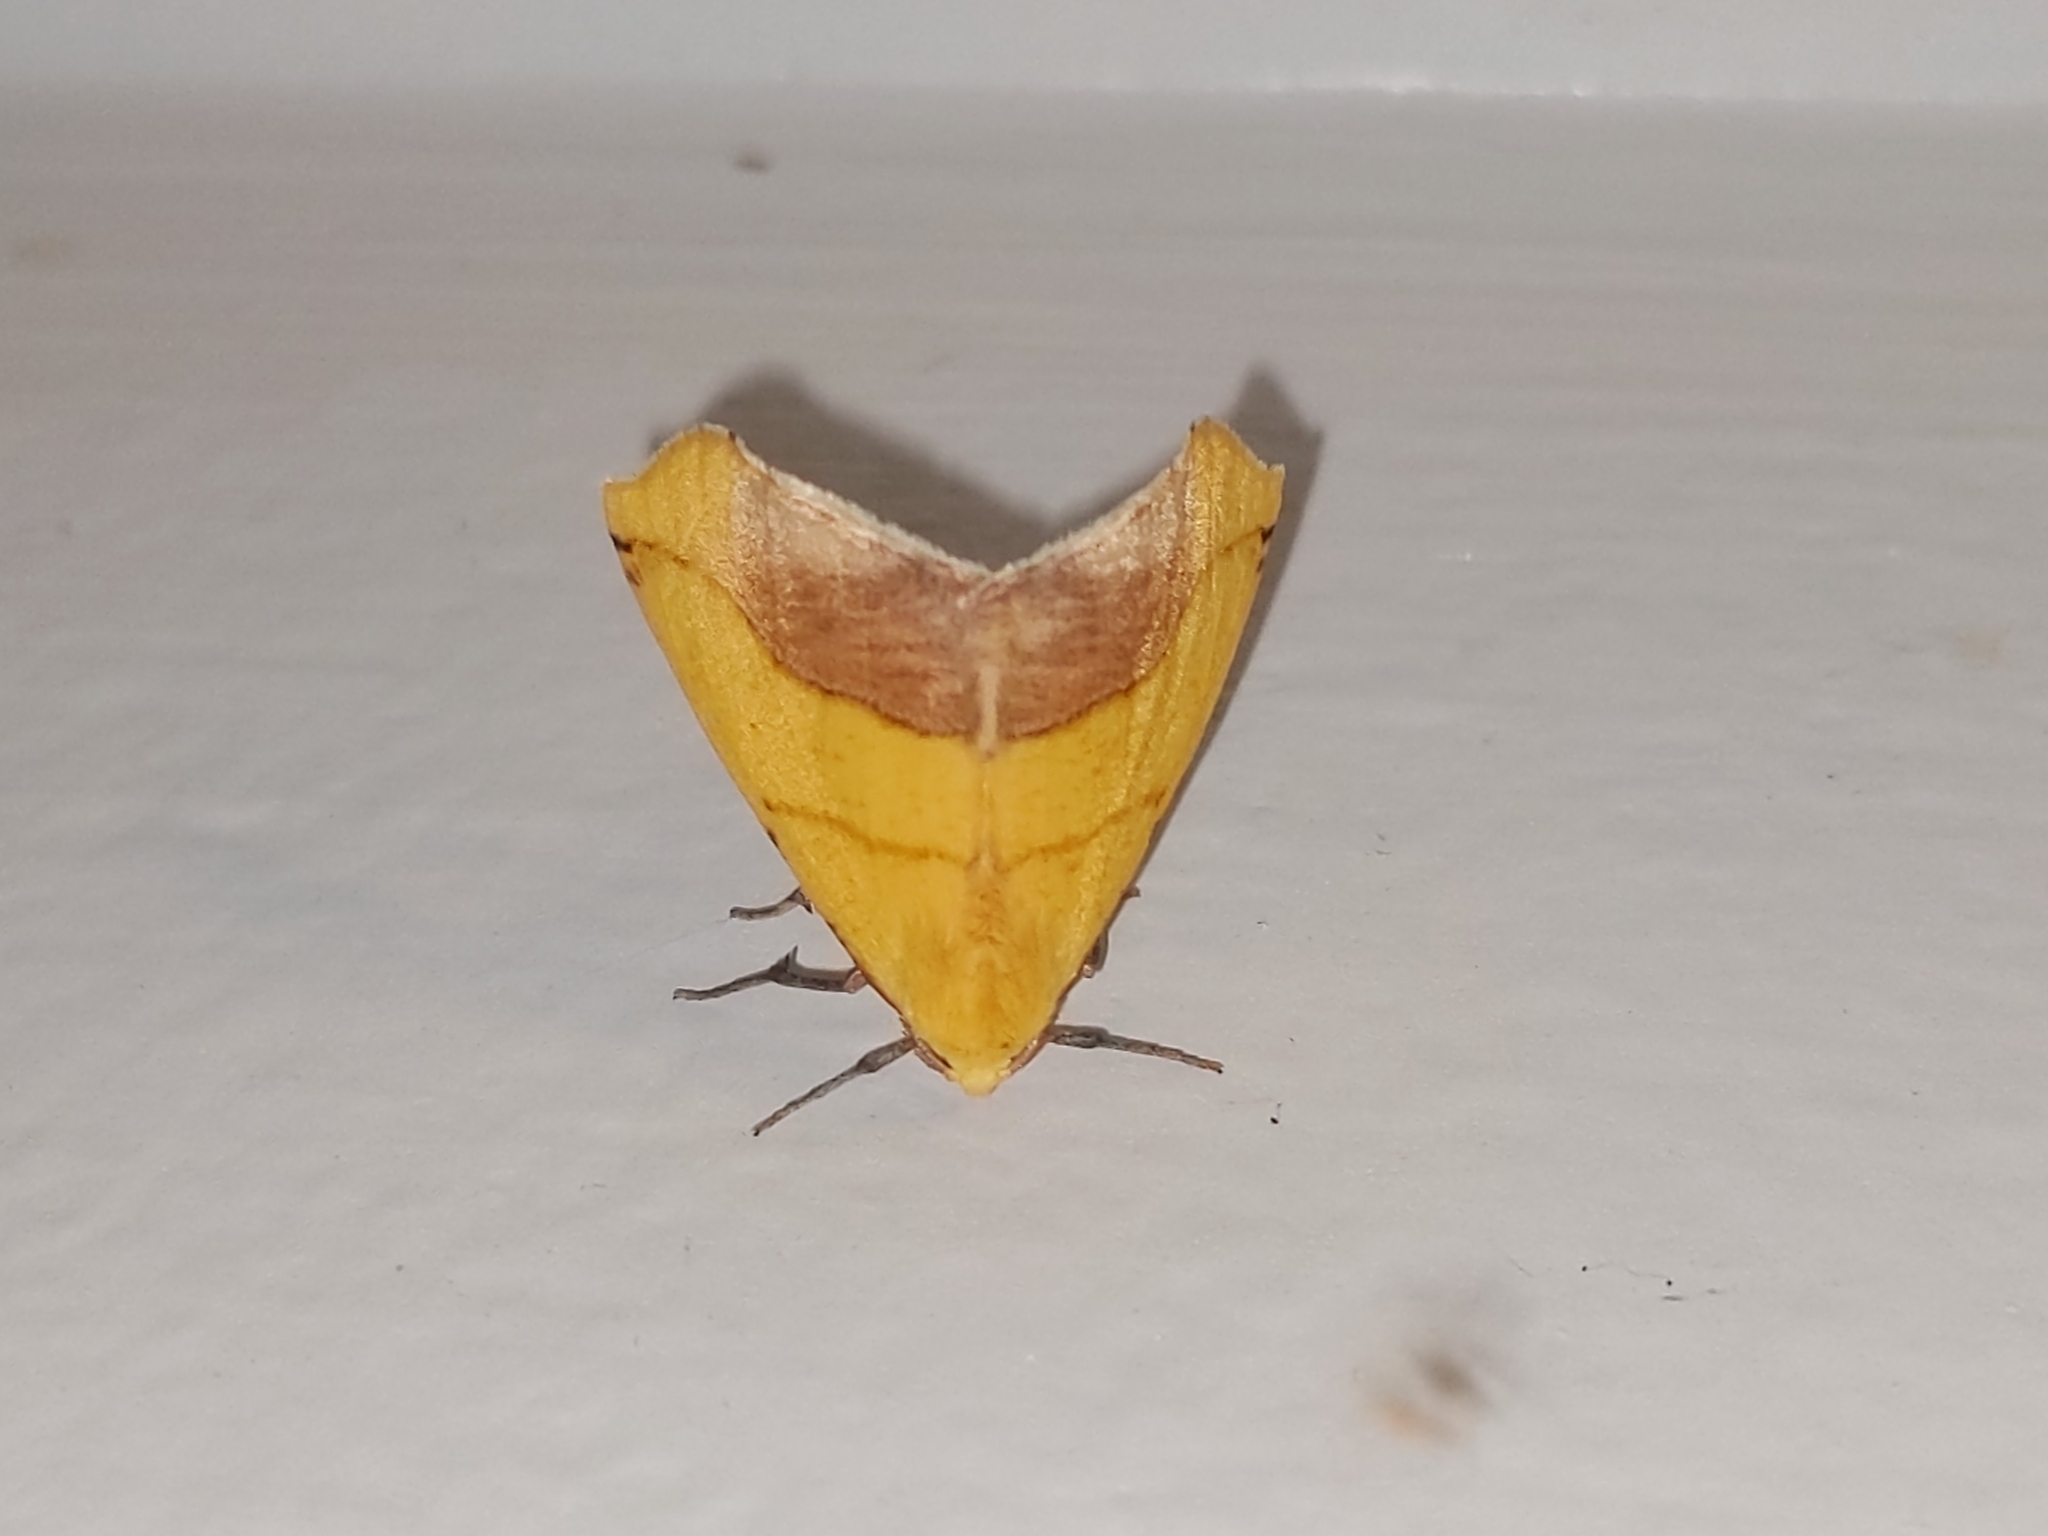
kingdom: Animalia
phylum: Arthropoda
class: Insecta
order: Lepidoptera
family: Geometridae
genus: Sicya
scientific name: Sicya macularia
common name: Sharp-lined yellow
